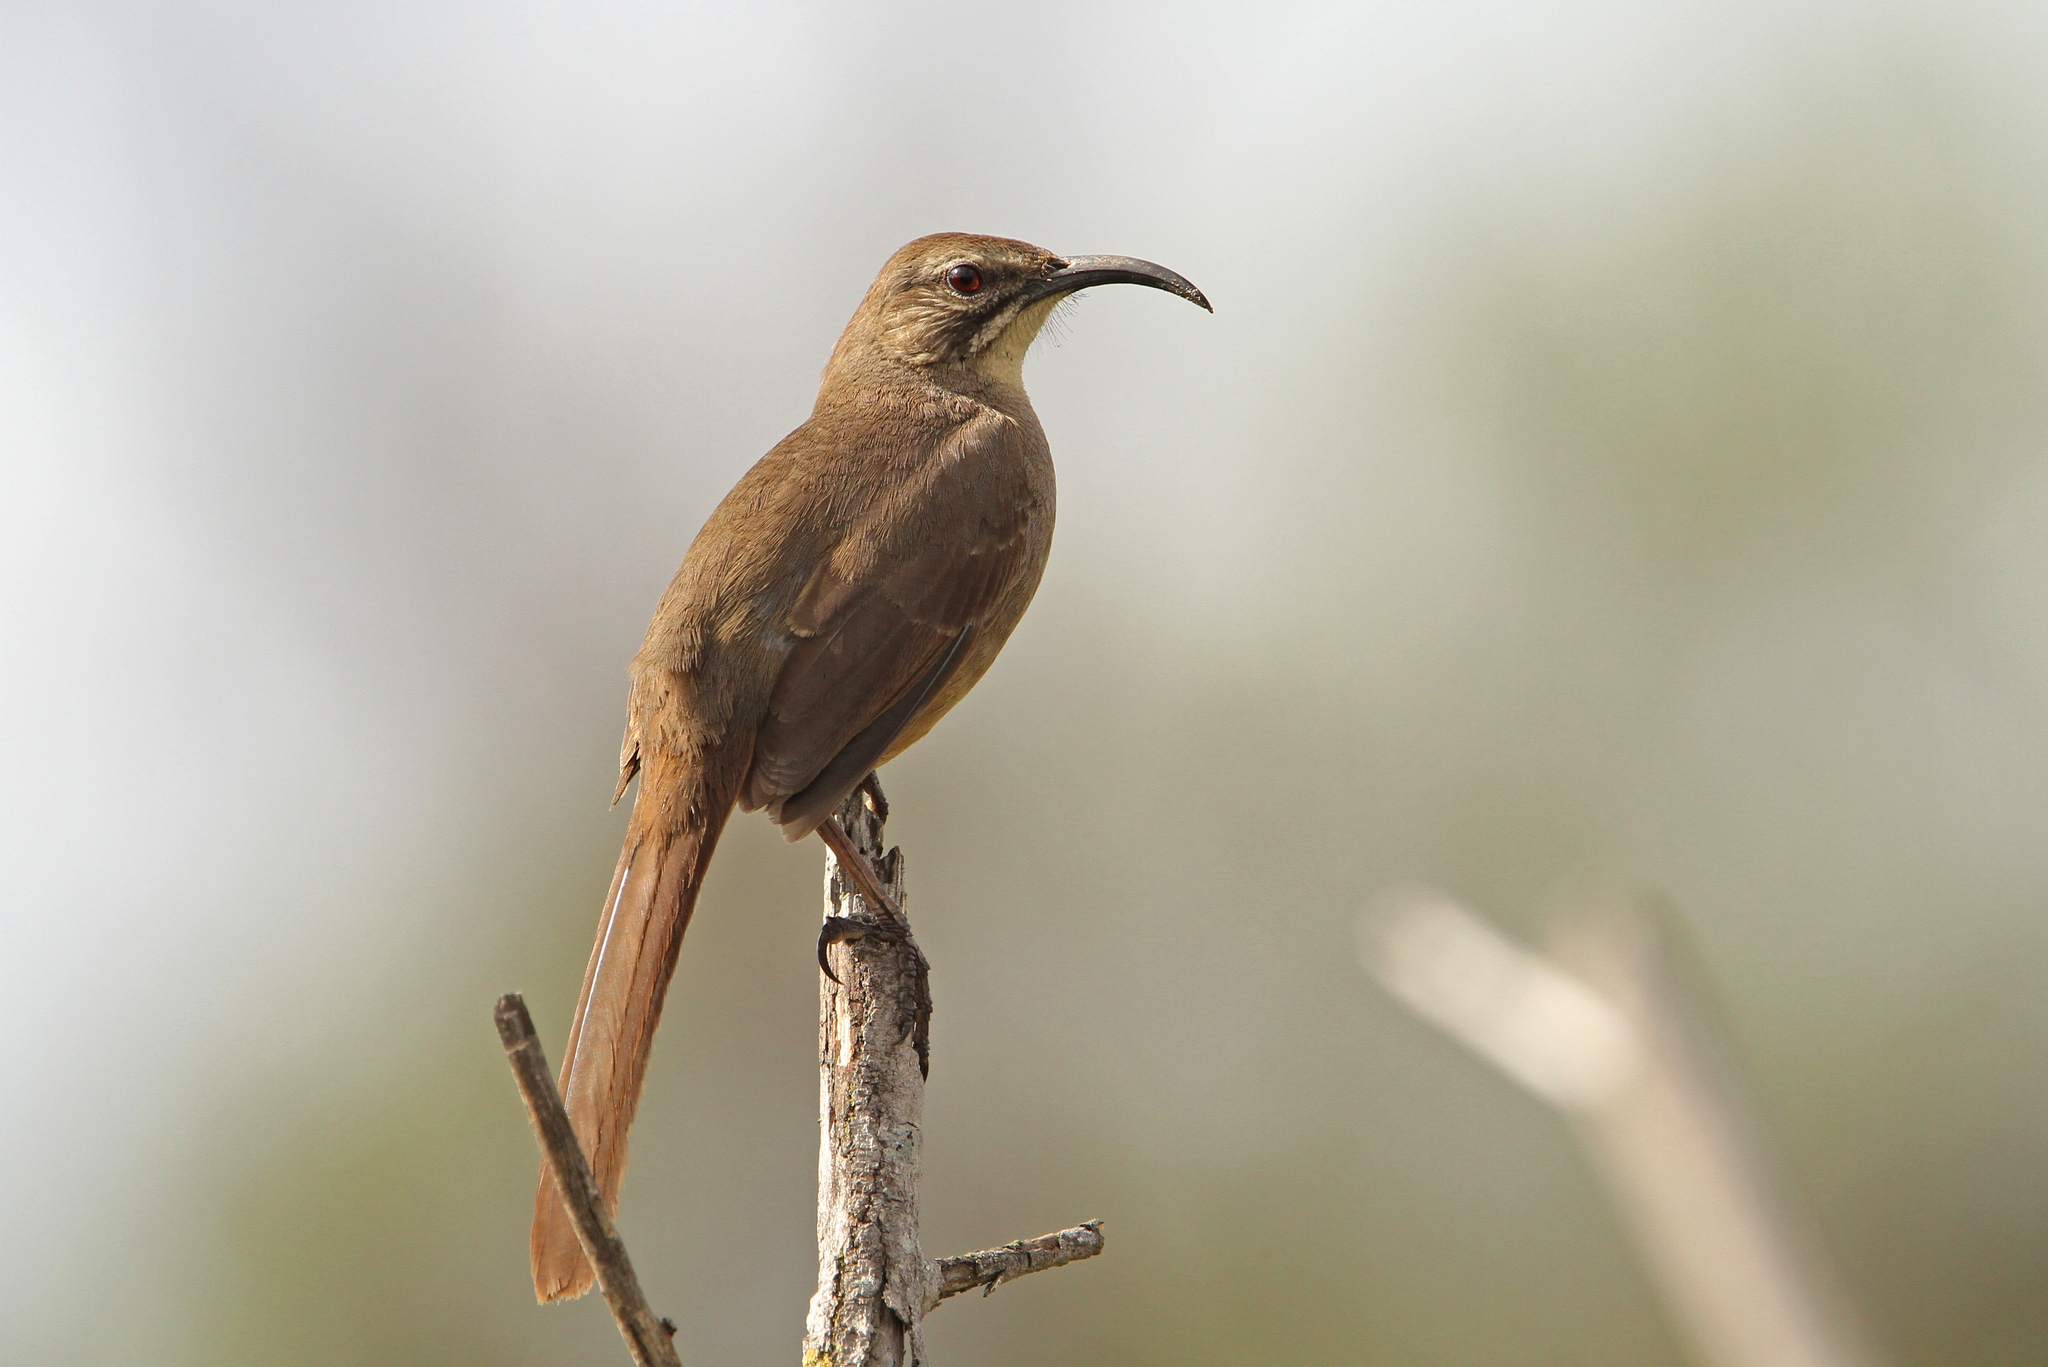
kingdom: Animalia
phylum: Chordata
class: Aves
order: Passeriformes
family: Mimidae
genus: Toxostoma
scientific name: Toxostoma redivivum
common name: California thrasher
